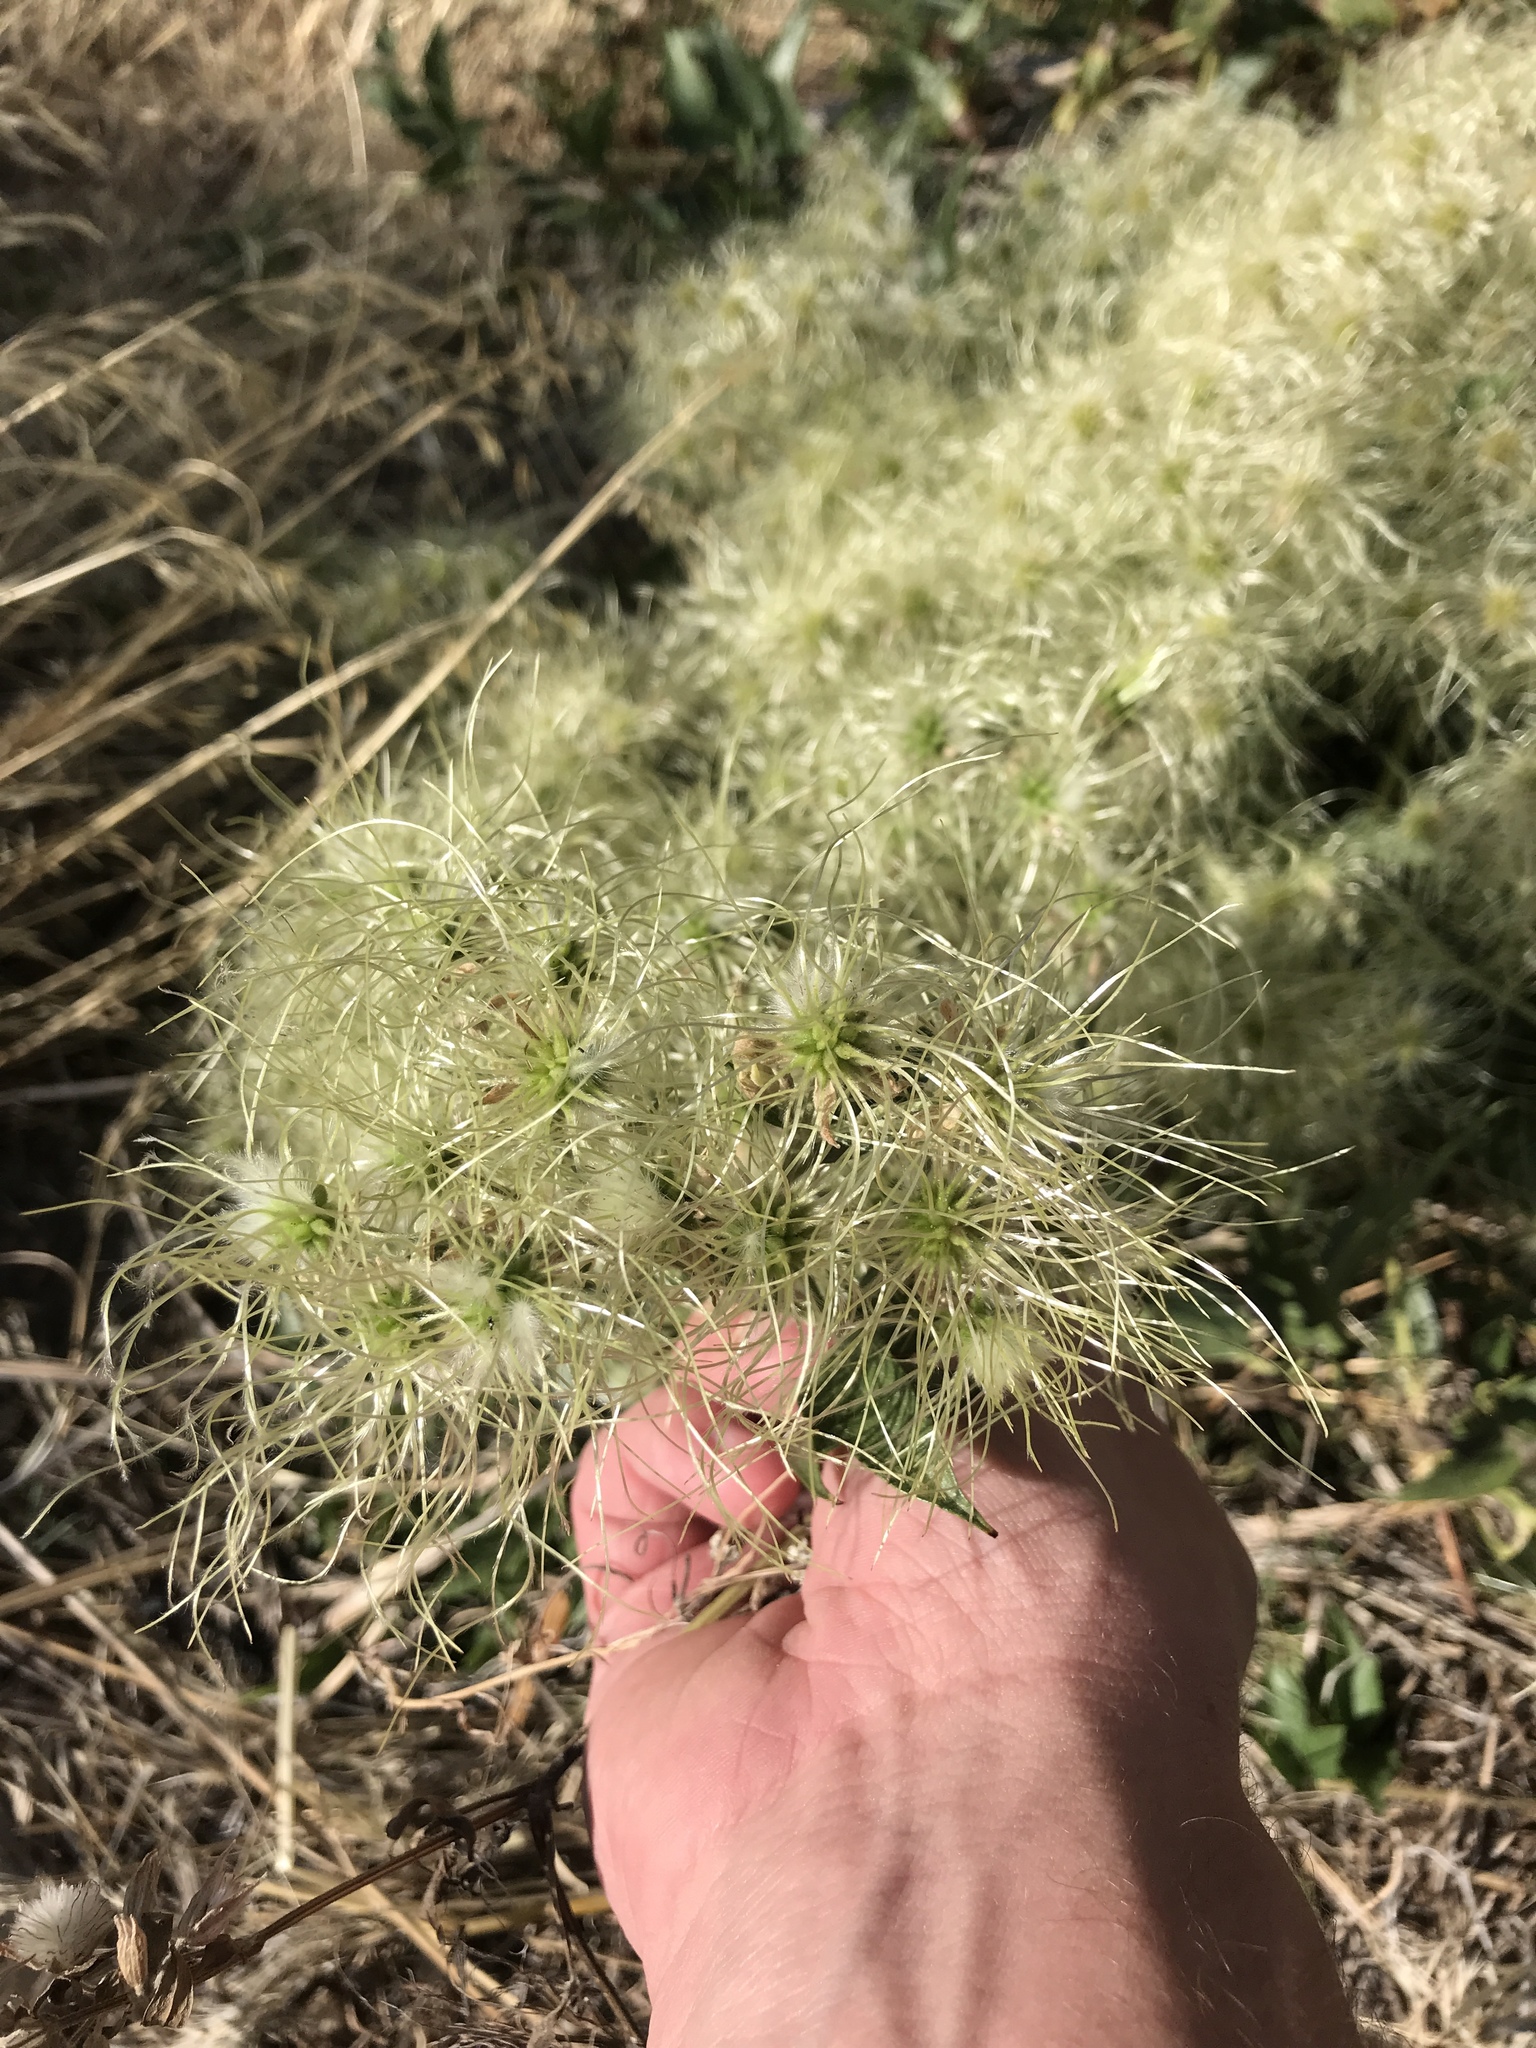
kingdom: Plantae
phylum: Tracheophyta
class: Magnoliopsida
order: Ranunculales
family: Ranunculaceae
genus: Clematis
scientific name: Clematis ligusticifolia
